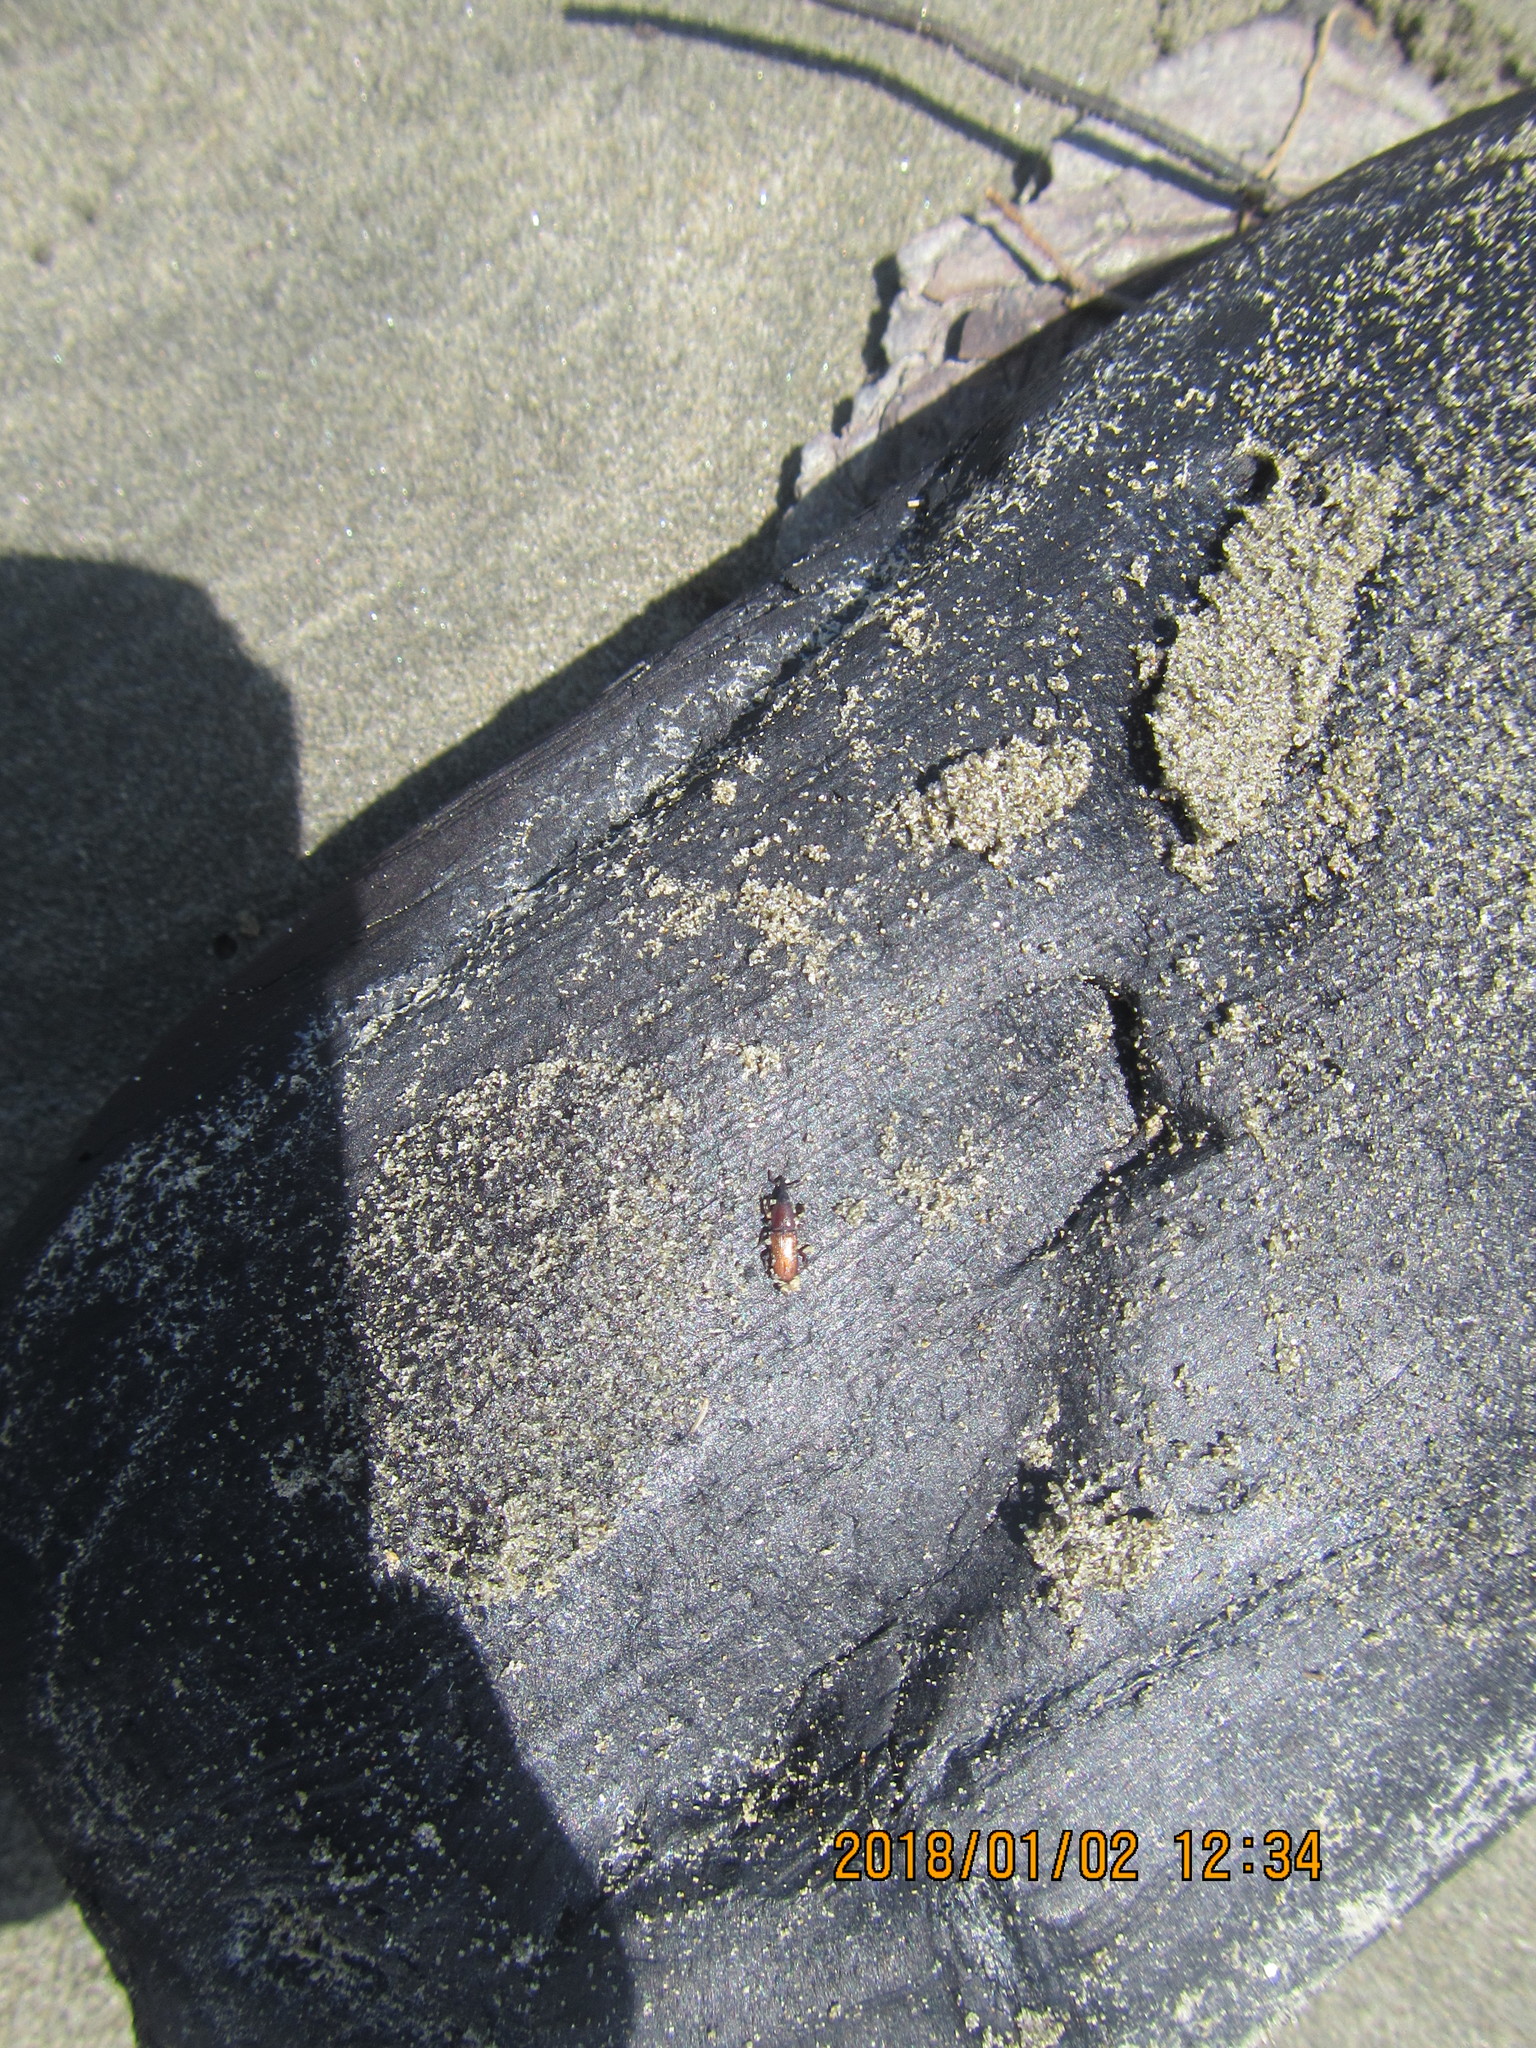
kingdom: Animalia
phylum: Arthropoda
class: Insecta
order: Coleoptera
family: Curculionidae
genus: Mesites
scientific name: Mesites pallidipennis
